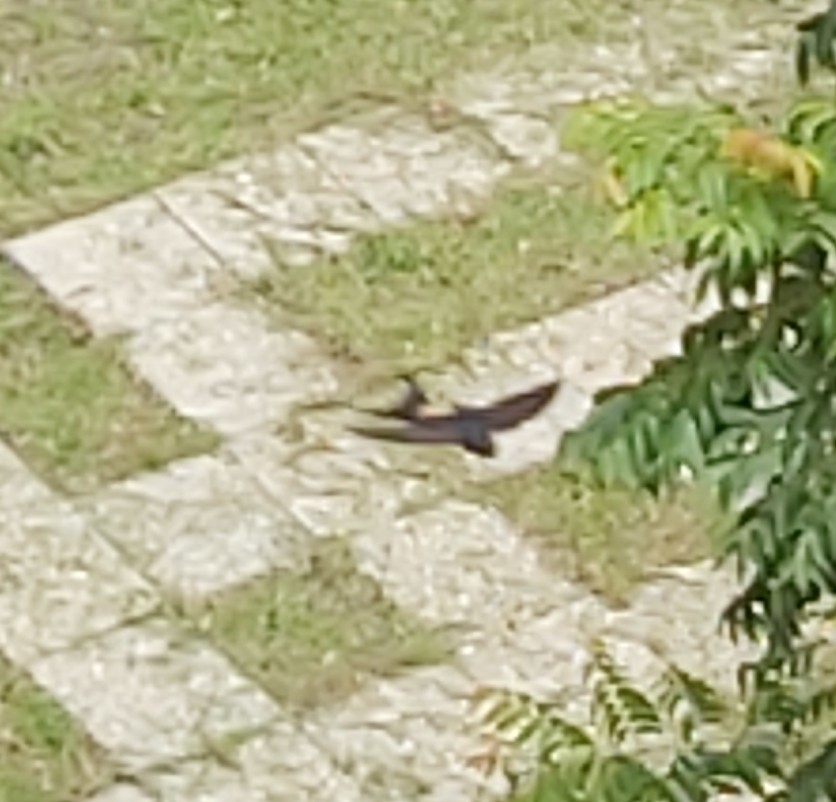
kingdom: Animalia
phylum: Chordata
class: Aves
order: Passeriformes
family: Hirundinidae
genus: Cecropis
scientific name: Cecropis striolata
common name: Striated swallow
